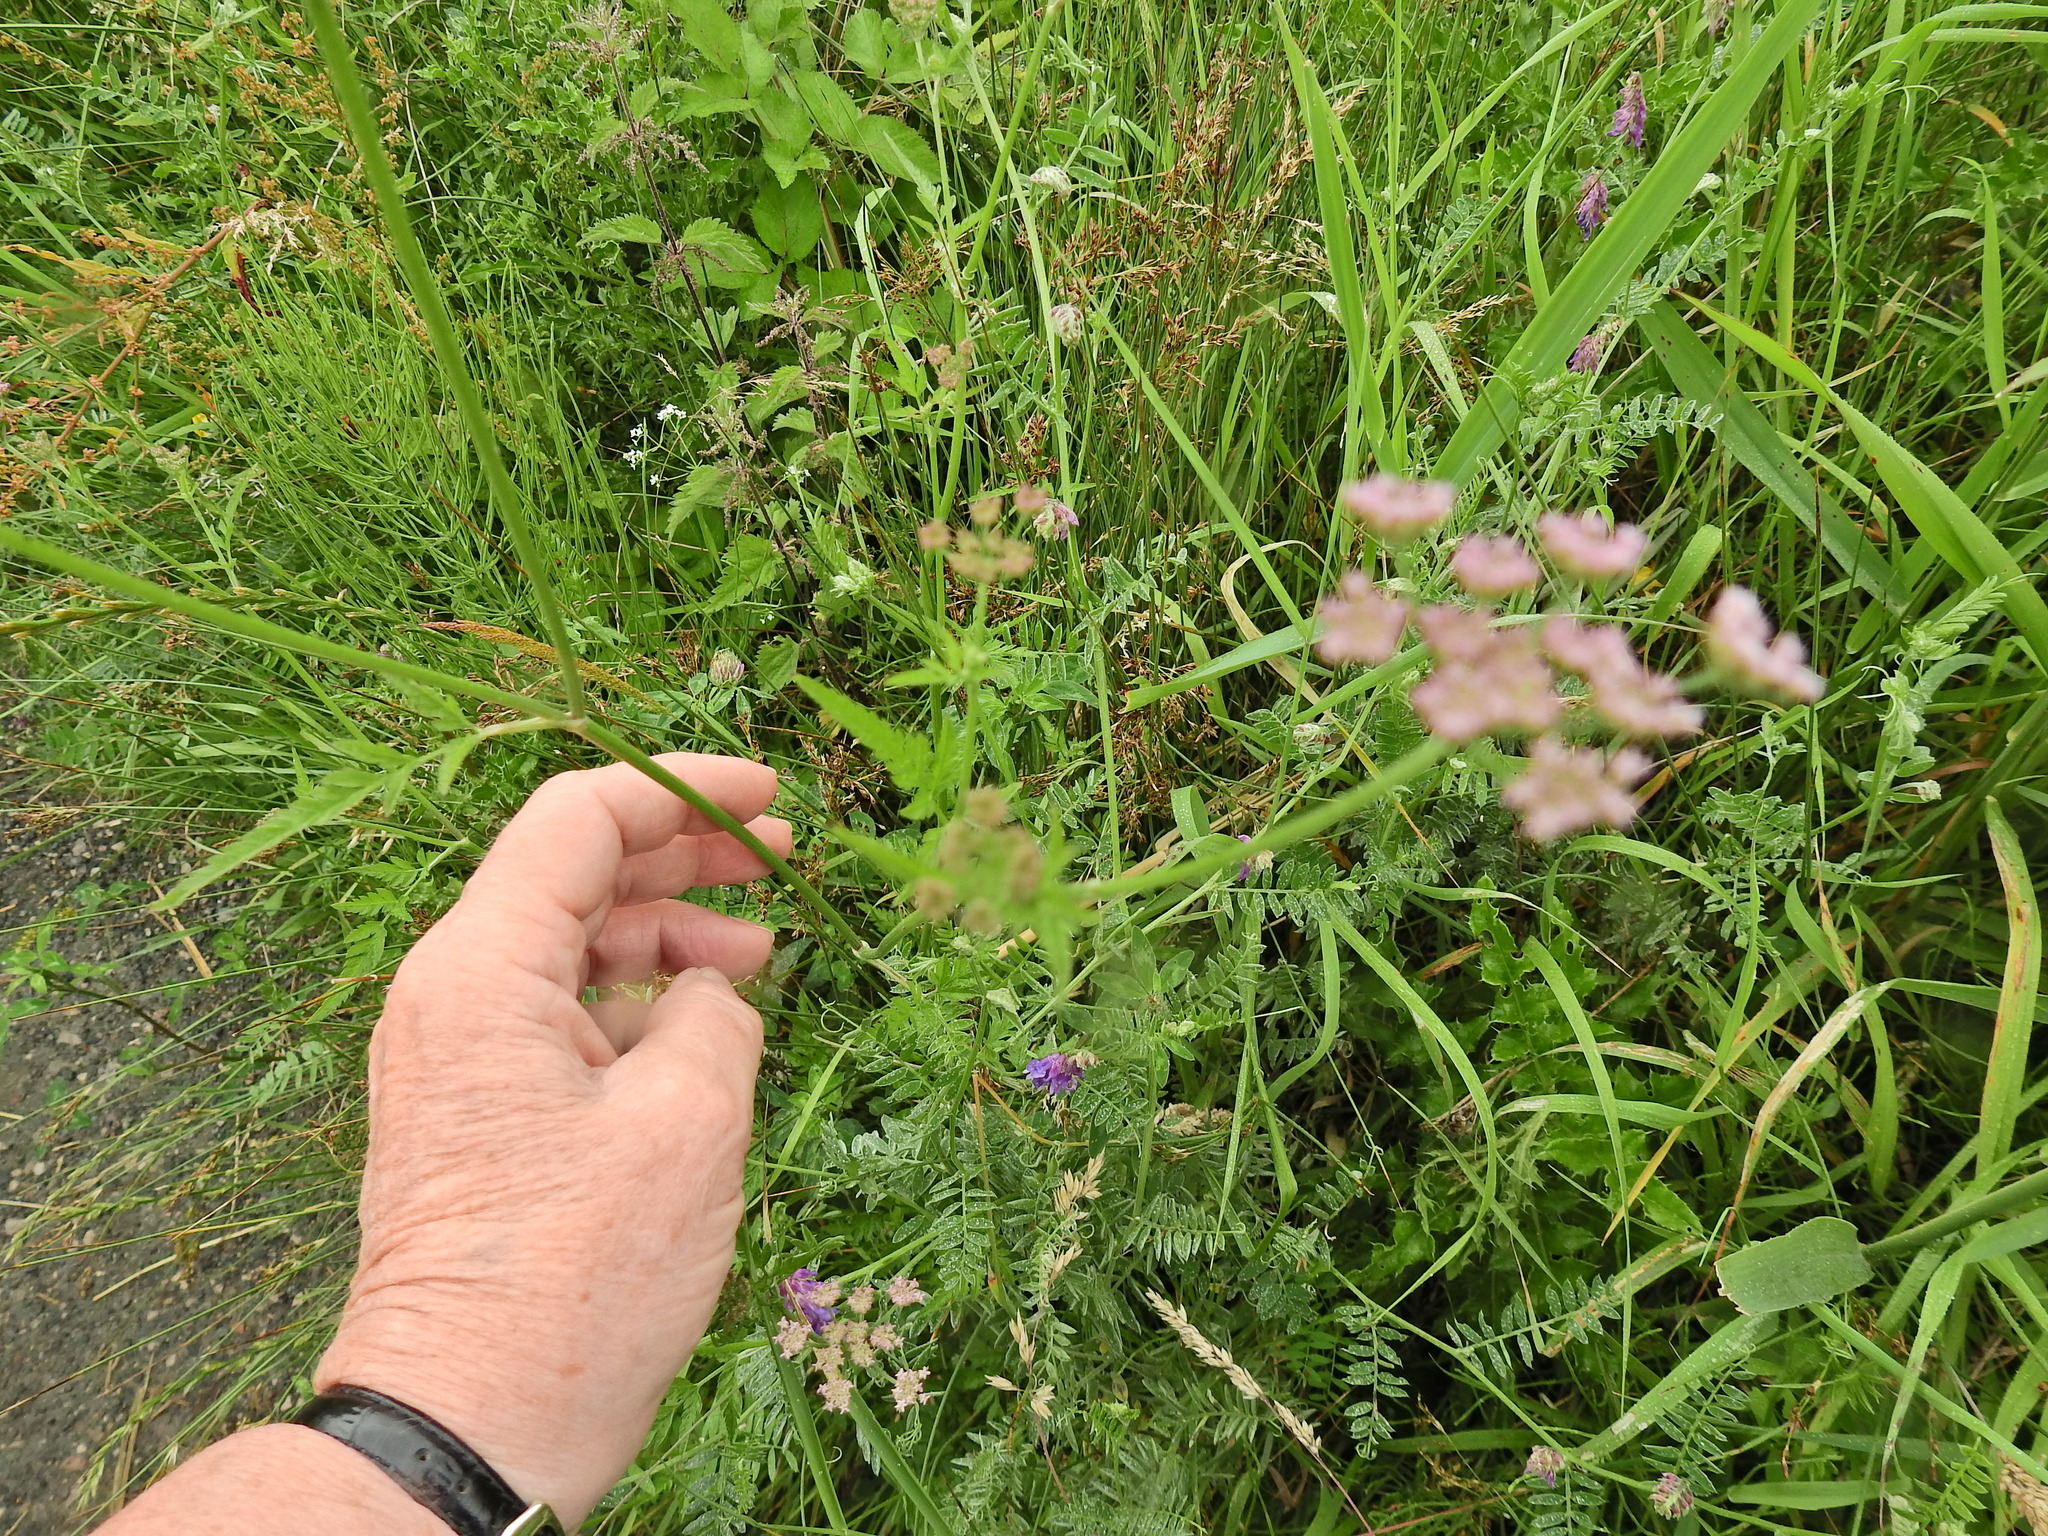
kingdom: Plantae
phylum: Tracheophyta
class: Magnoliopsida
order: Apiales
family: Apiaceae
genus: Torilis
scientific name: Torilis japonica
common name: Upright hedge-parsley
